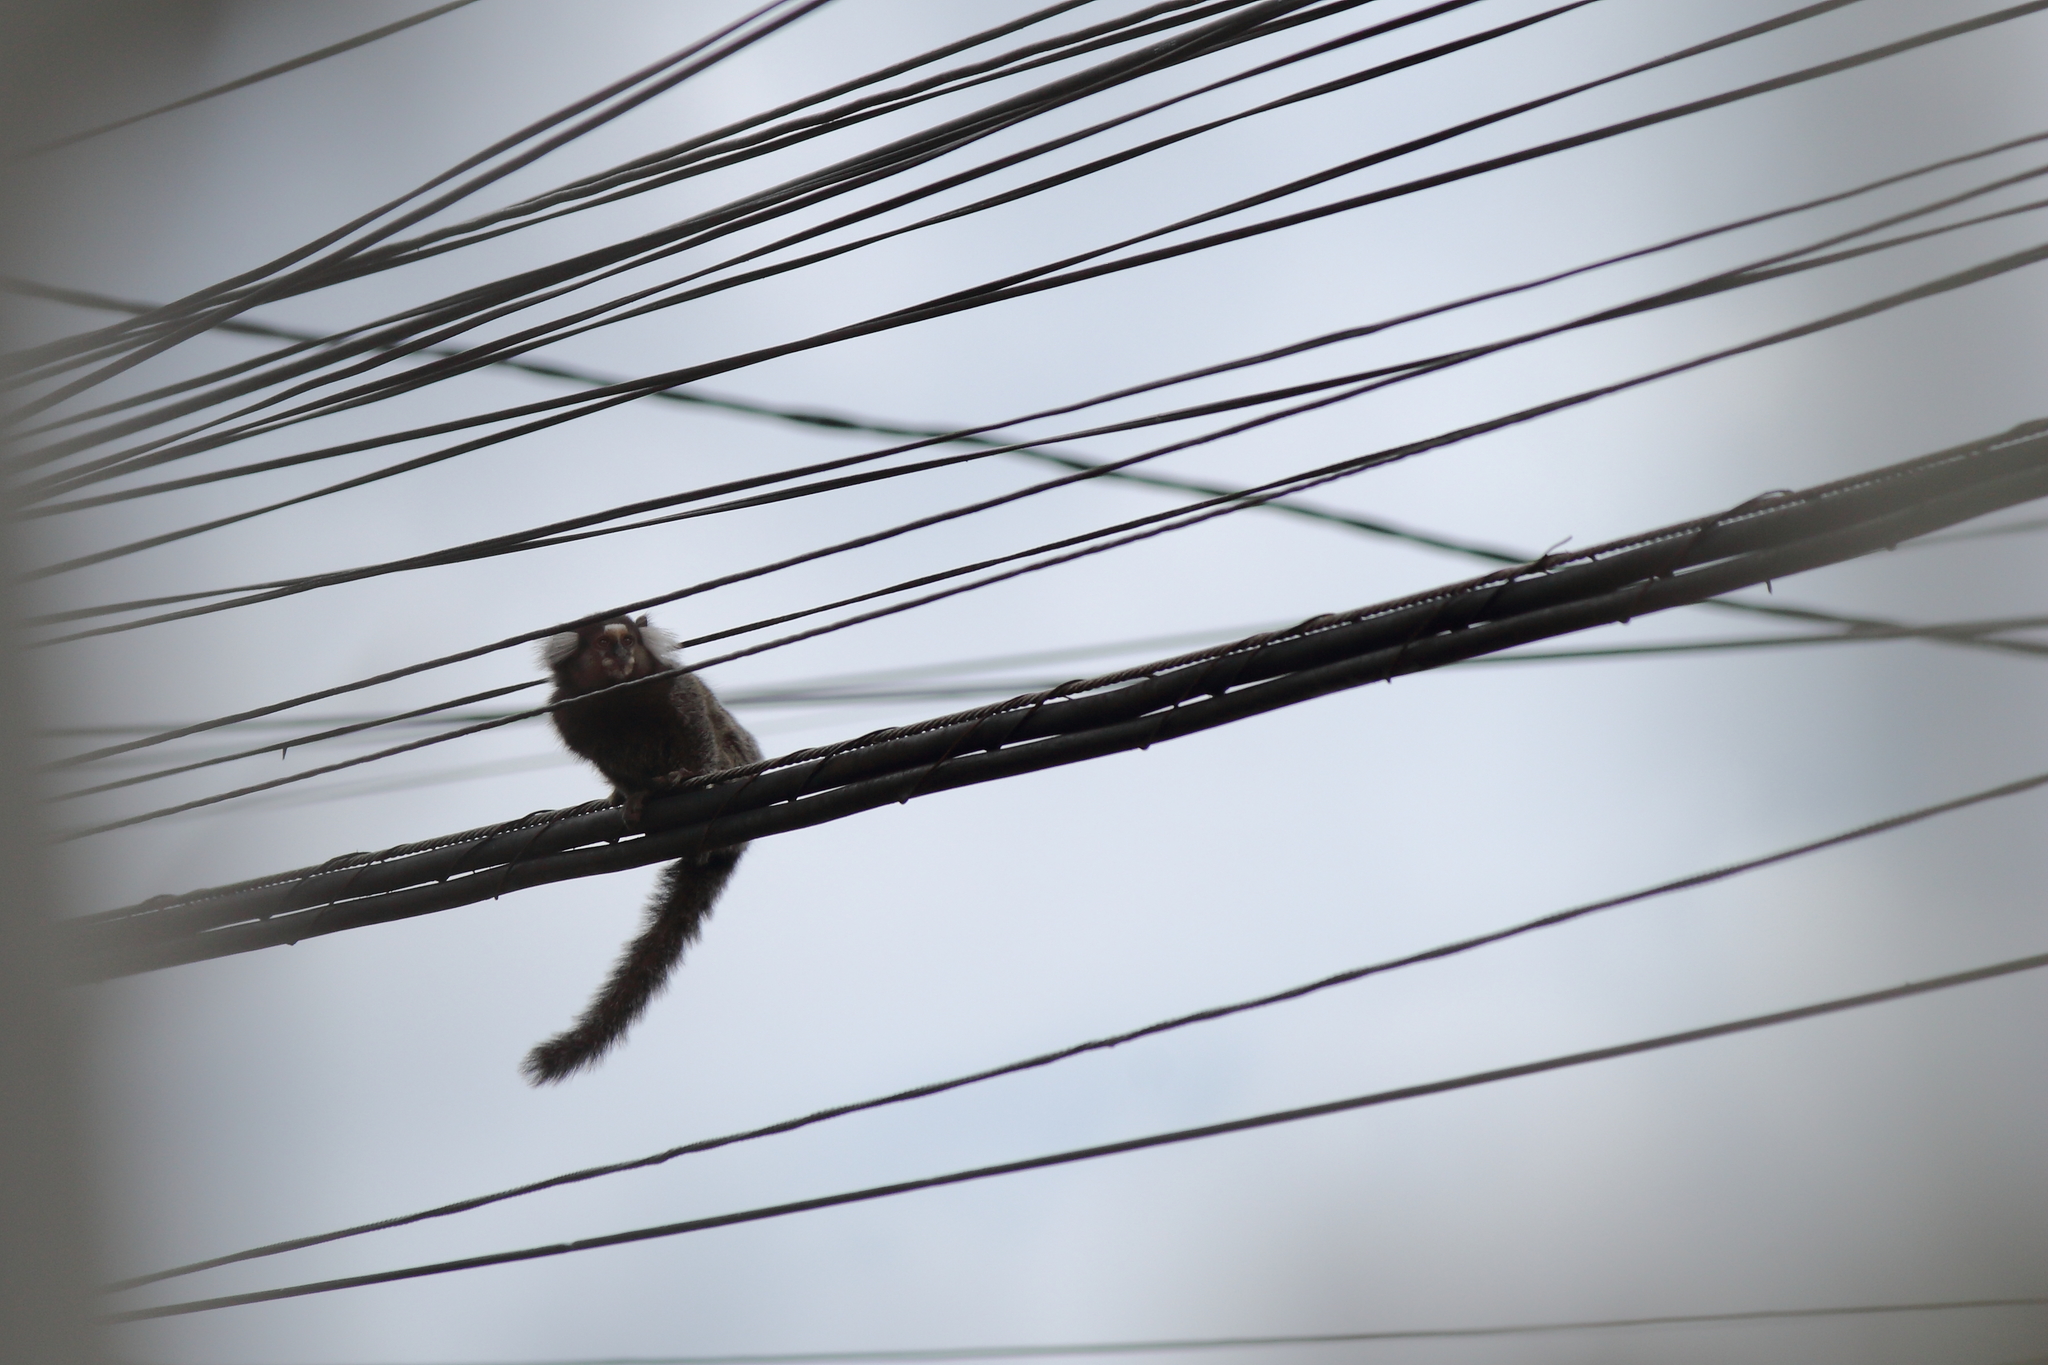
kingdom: Animalia
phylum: Chordata
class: Mammalia
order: Primates
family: Callitrichidae
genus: Callithrix
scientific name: Callithrix jacchus
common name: Common marmoset
